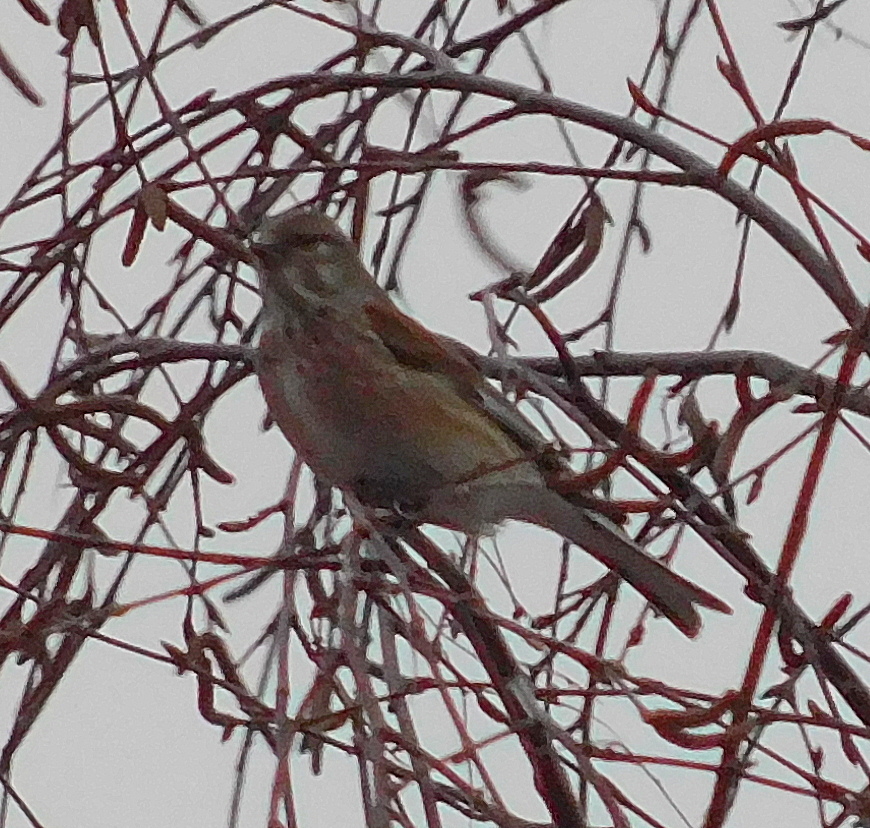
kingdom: Animalia
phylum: Chordata
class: Aves
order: Passeriformes
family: Fringillidae
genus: Linaria
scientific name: Linaria cannabina
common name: Common linnet
